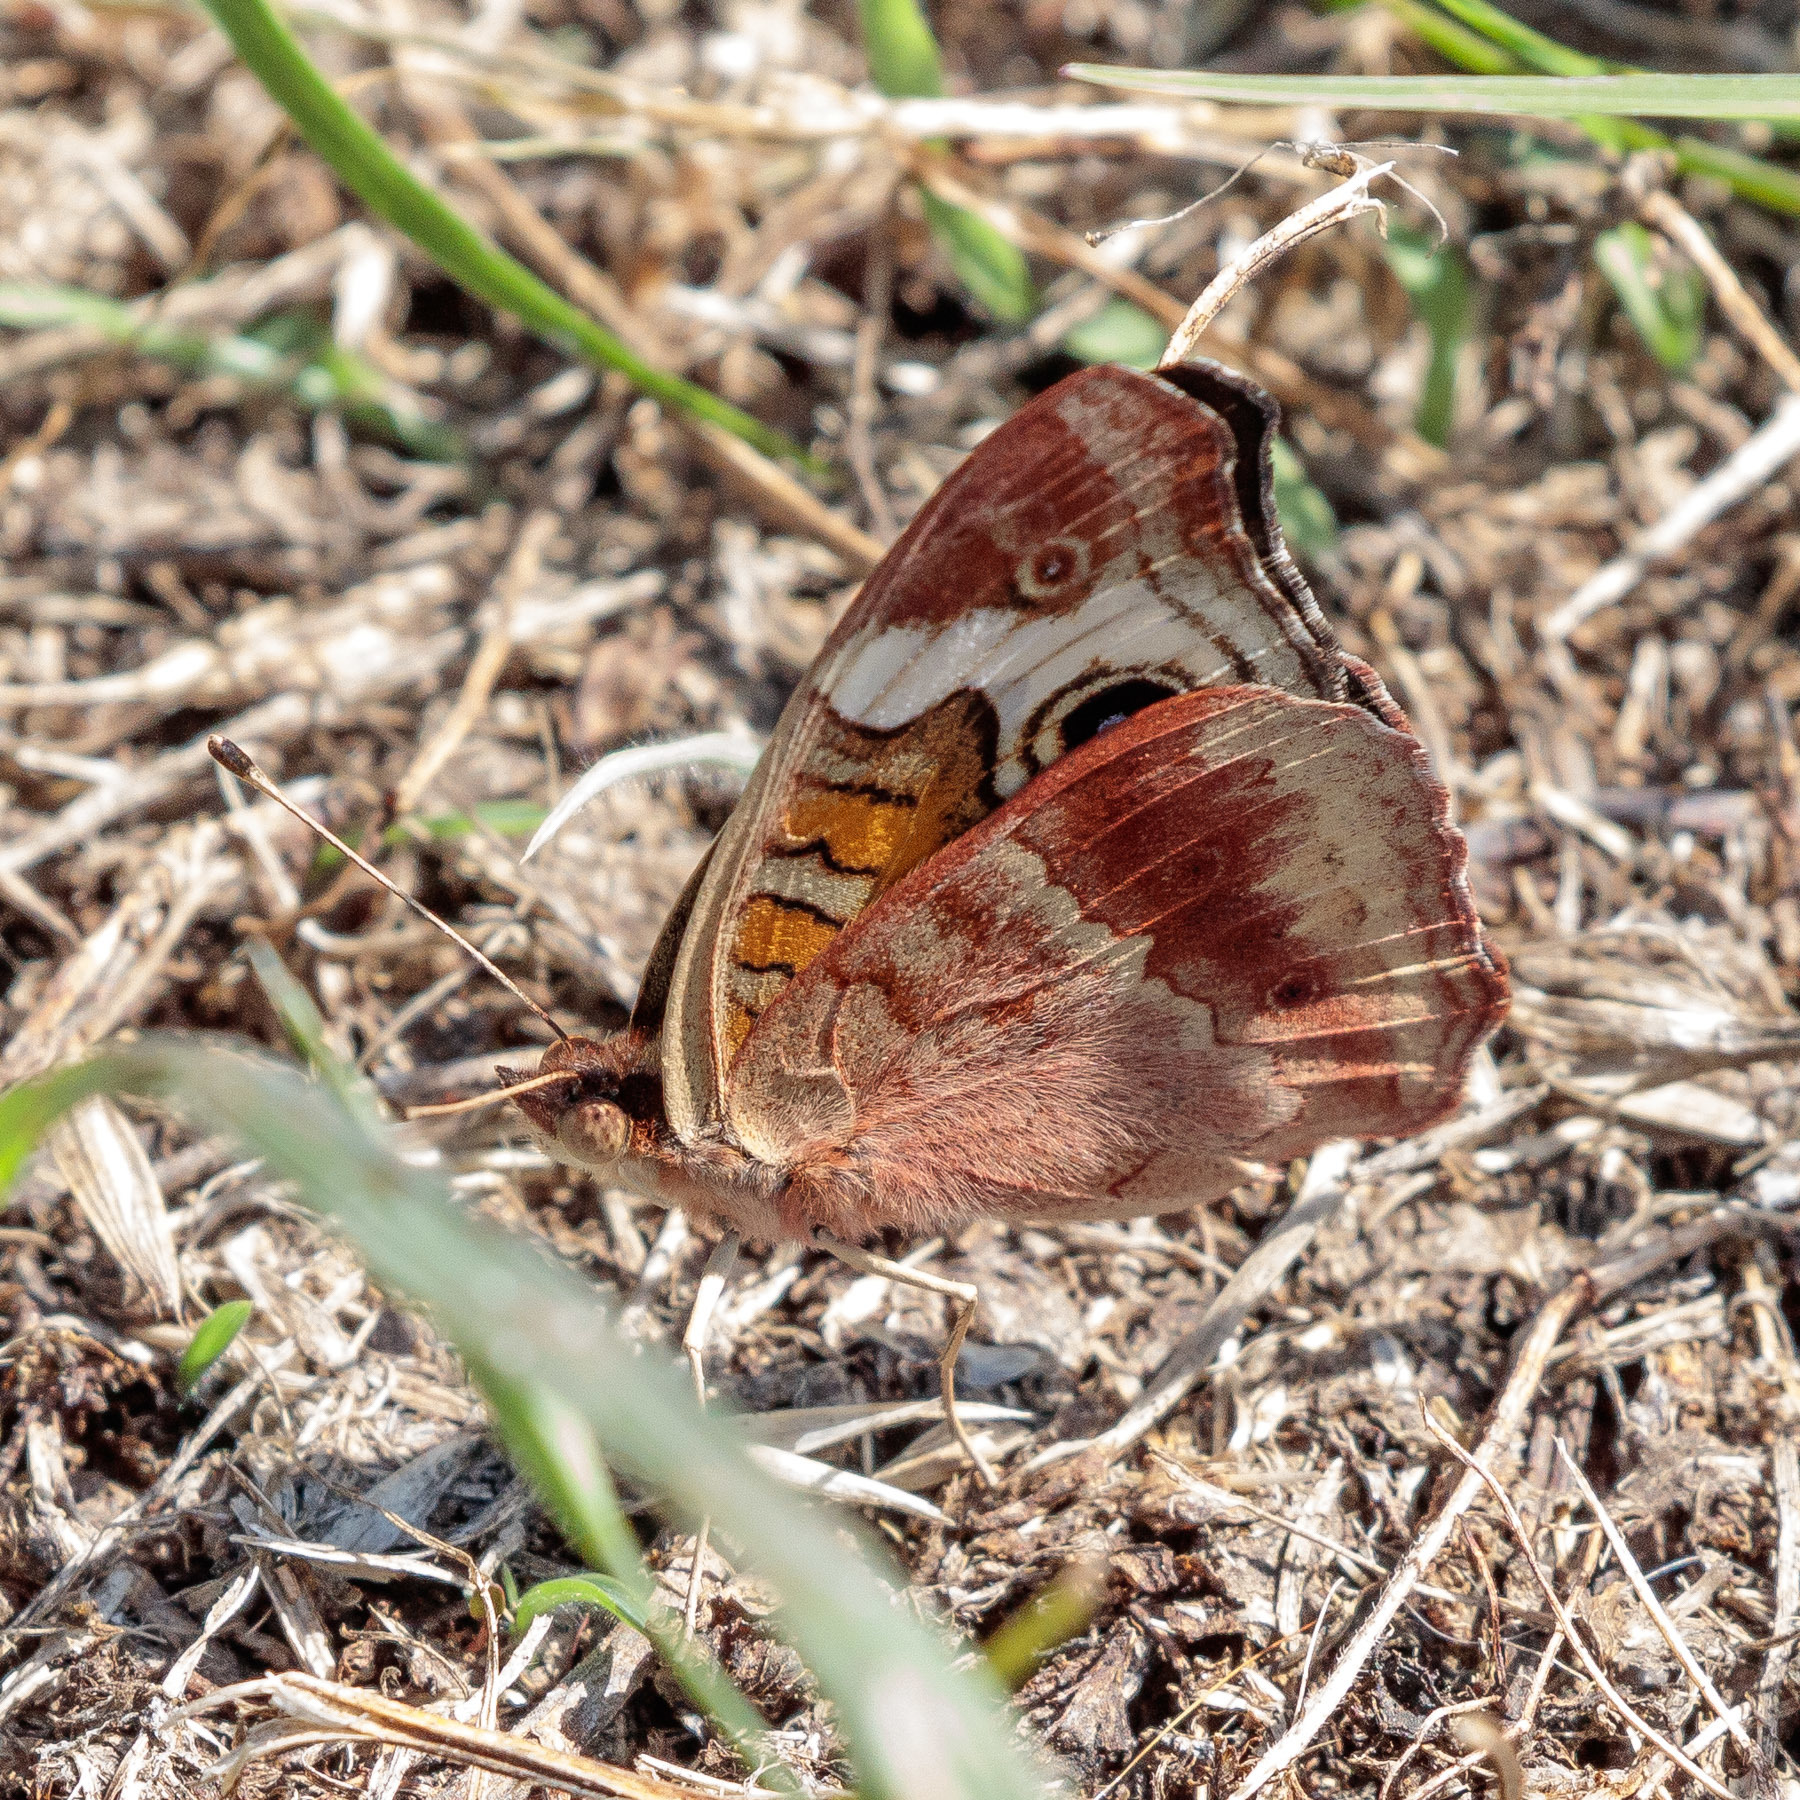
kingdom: Animalia
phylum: Arthropoda
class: Insecta
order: Lepidoptera
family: Nymphalidae
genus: Junonia
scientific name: Junonia coenia
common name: Common buckeye
